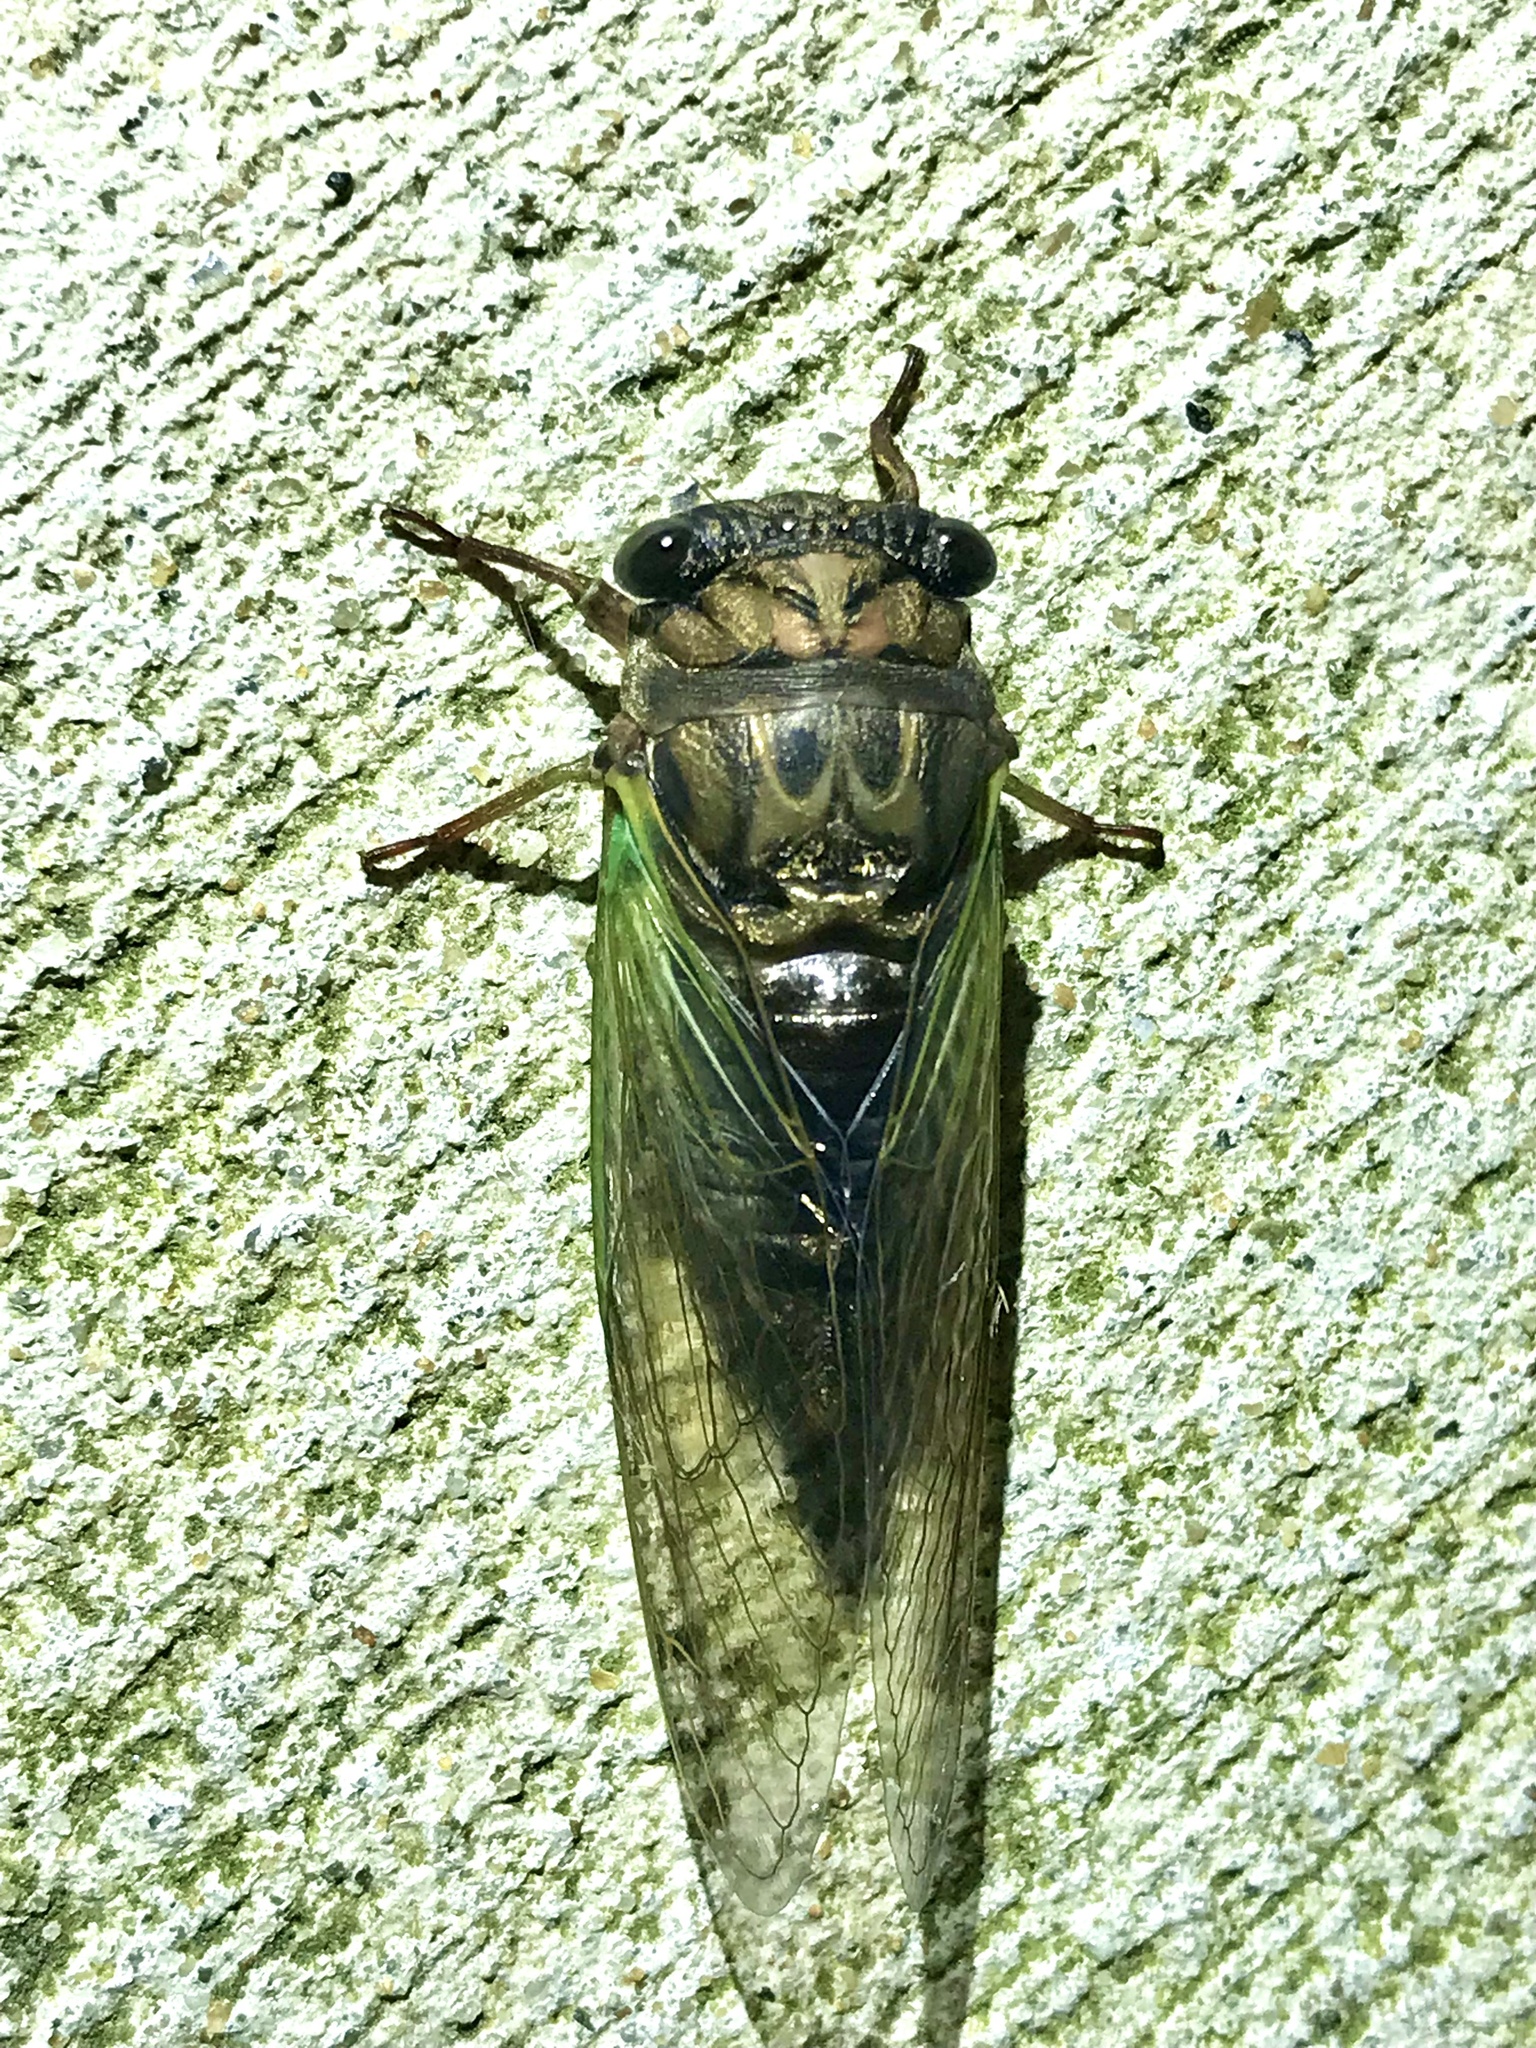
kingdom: Animalia
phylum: Arthropoda
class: Insecta
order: Hemiptera
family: Cicadidae
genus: Neotibicen
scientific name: Neotibicen lyricen
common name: Lyric cicada
